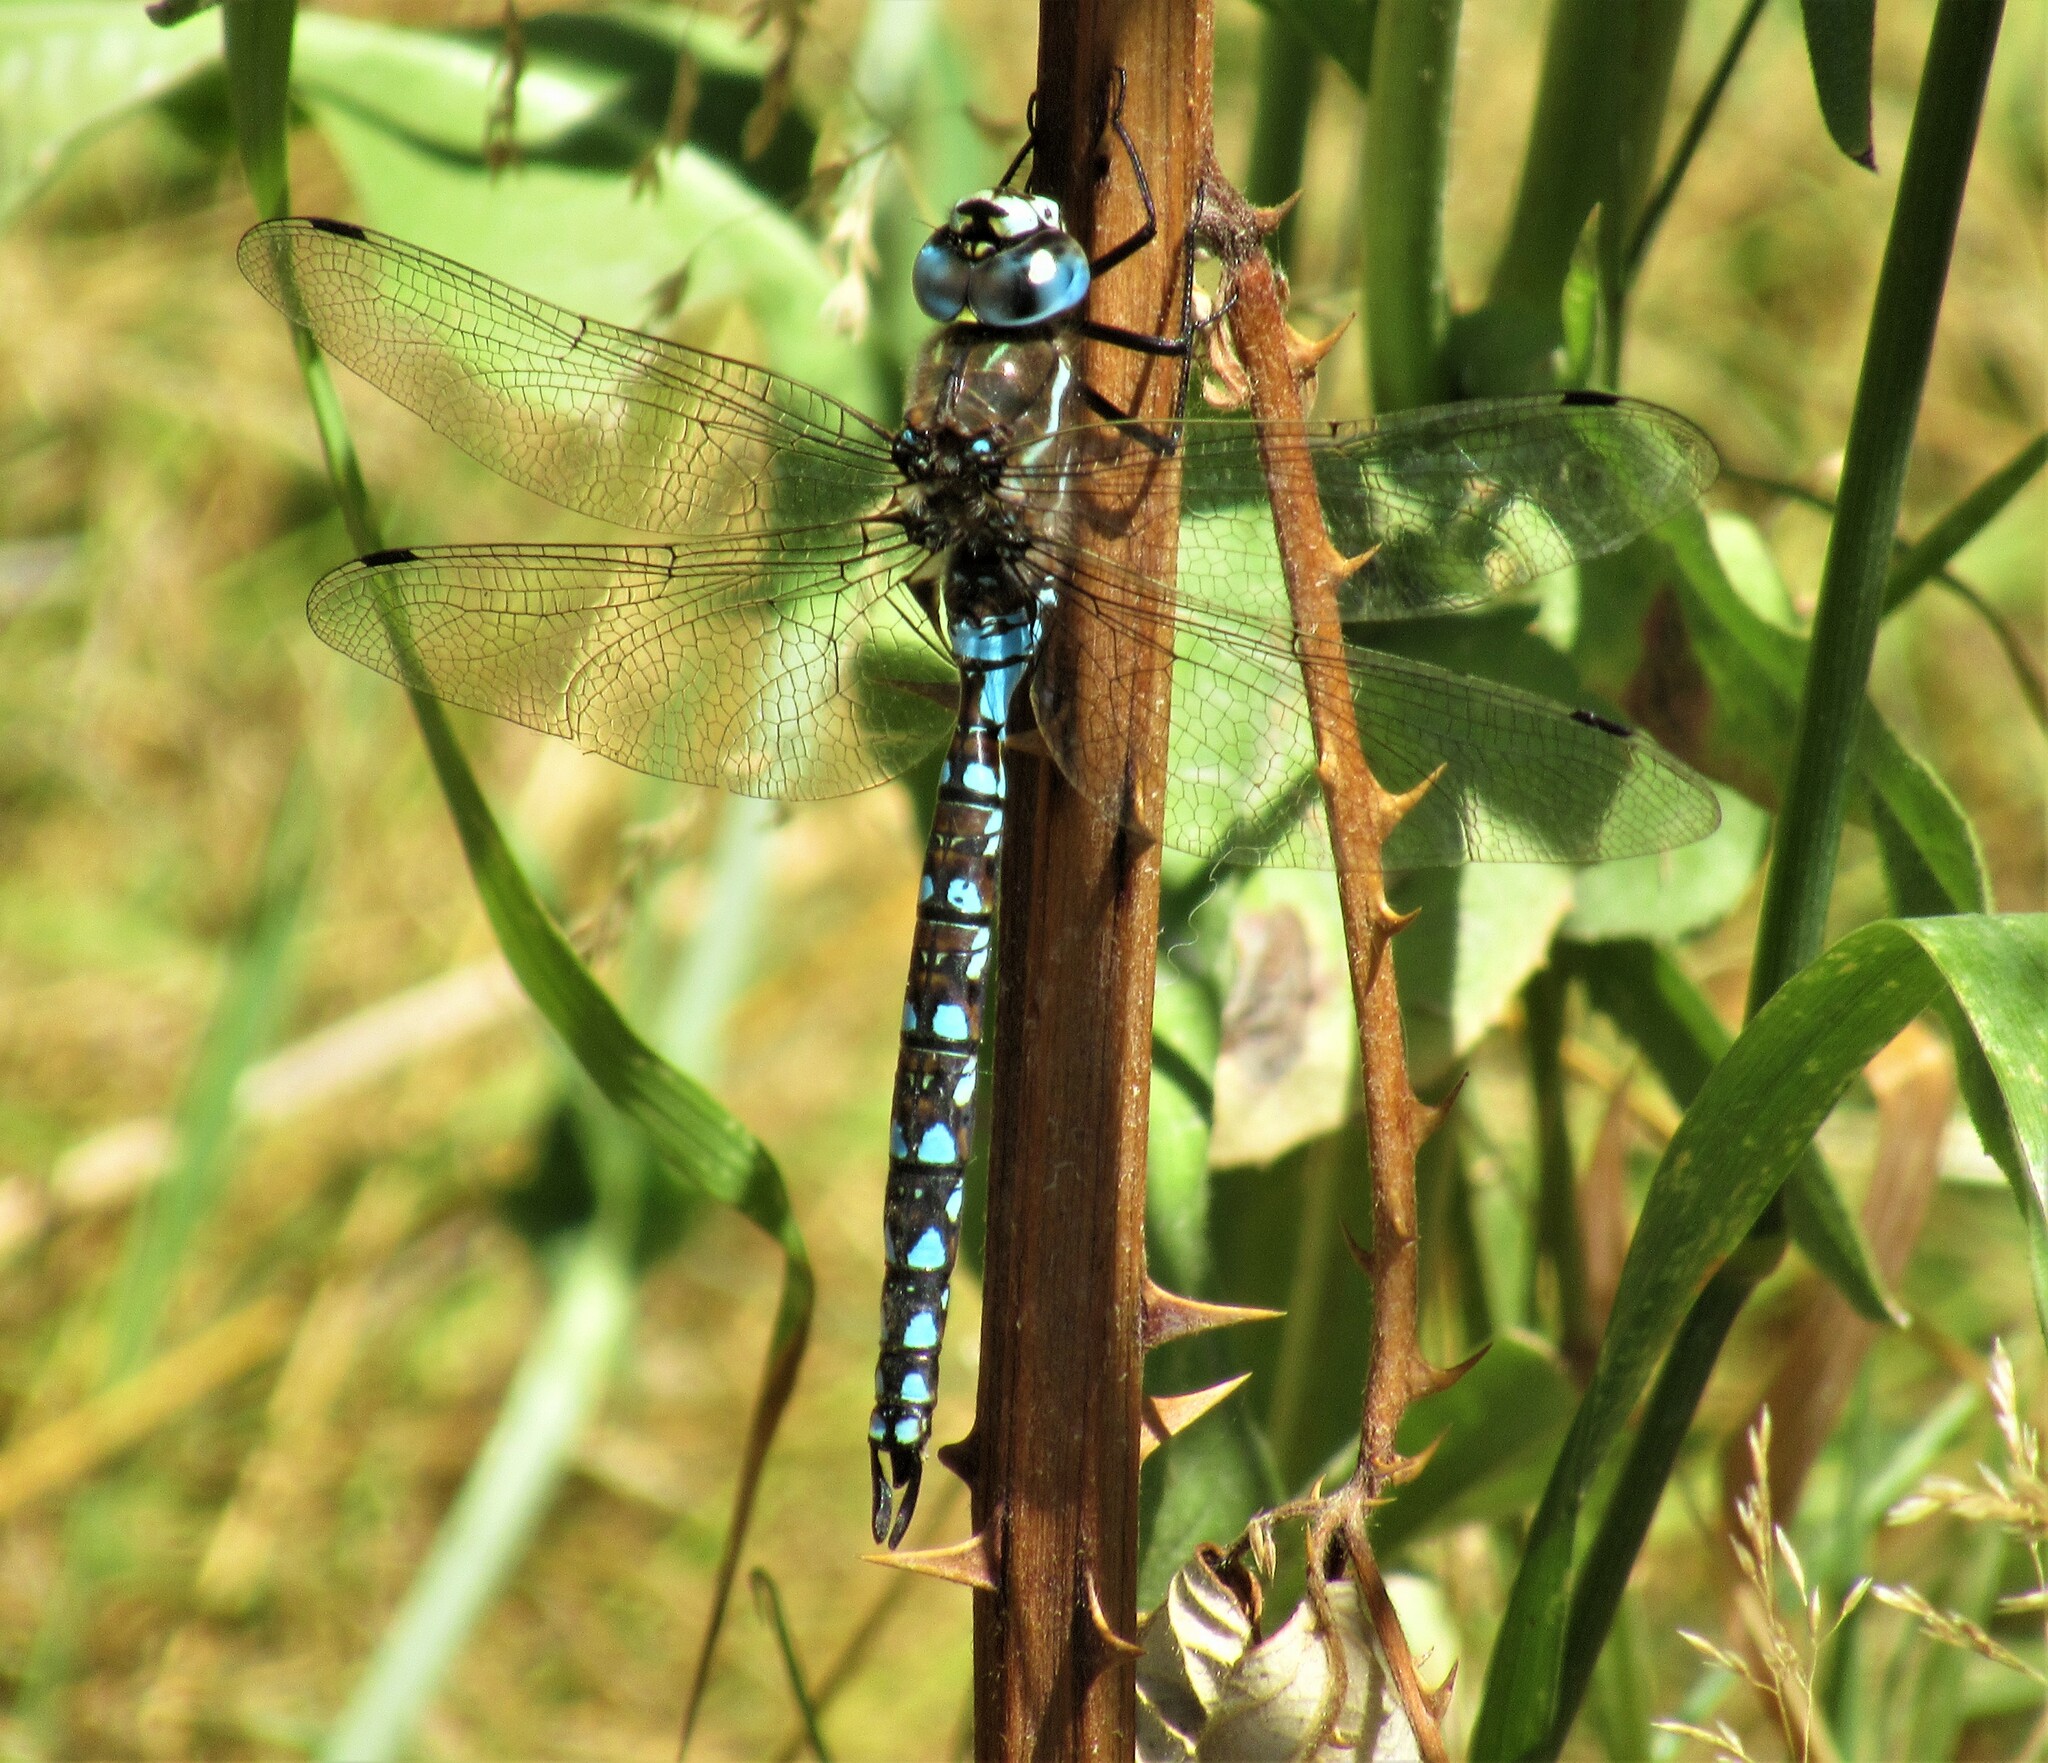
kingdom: Animalia
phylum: Arthropoda
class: Insecta
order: Odonata
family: Aeshnidae
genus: Rhionaeschna
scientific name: Rhionaeschna californica
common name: California darner
